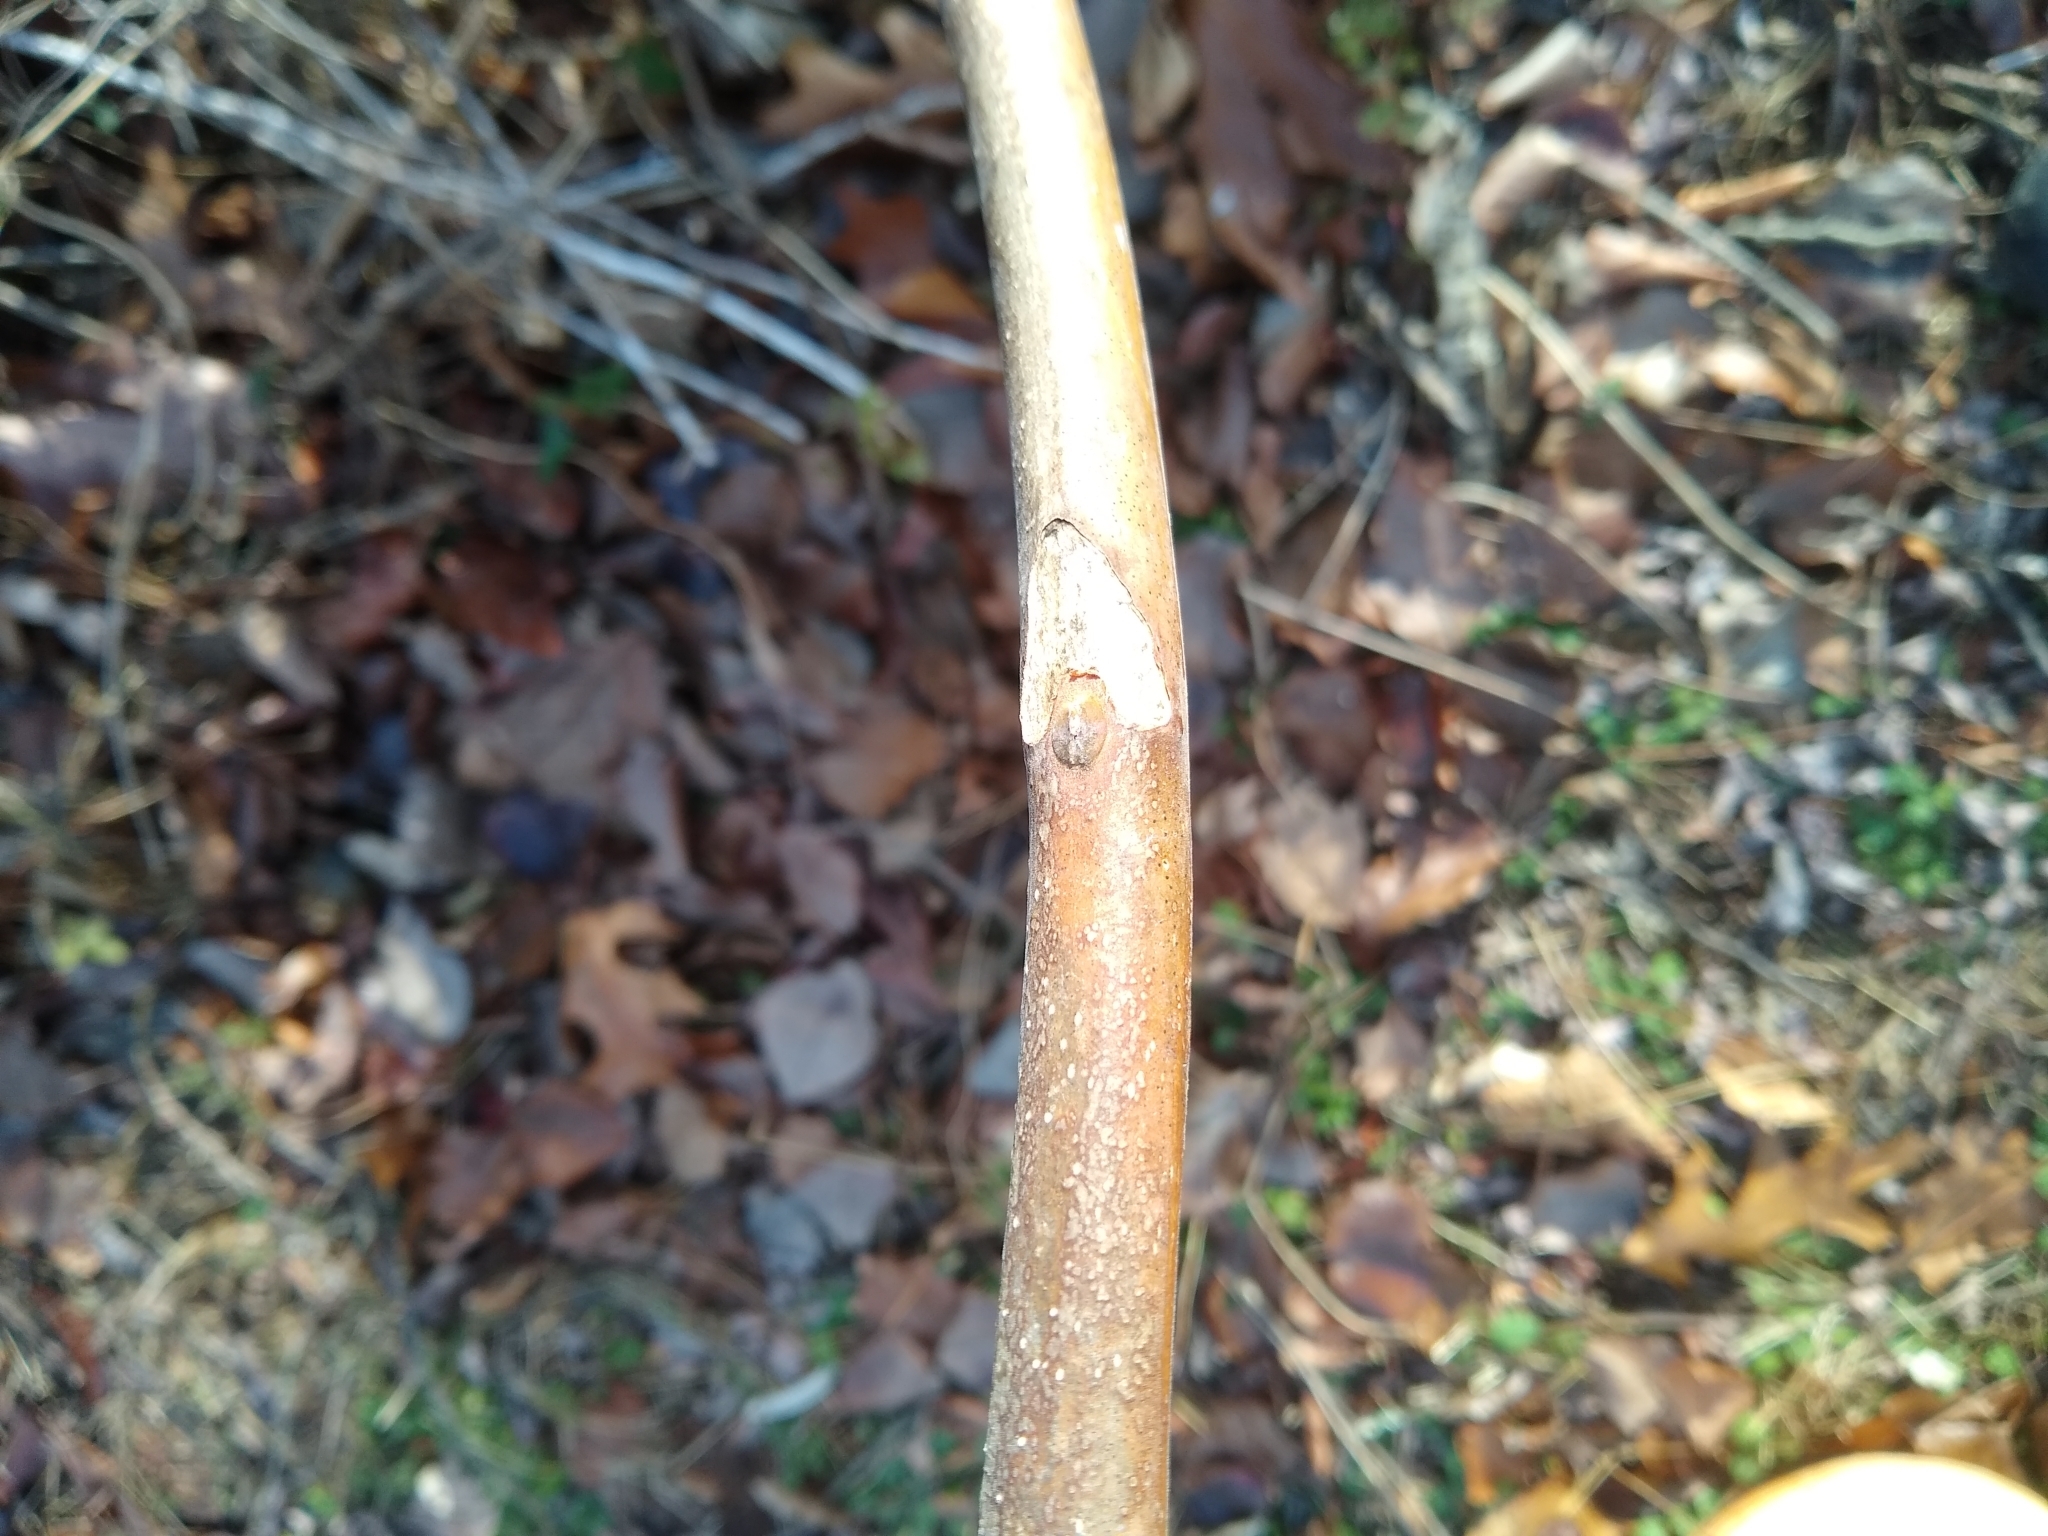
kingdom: Plantae
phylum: Tracheophyta
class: Magnoliopsida
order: Sapindales
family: Simaroubaceae
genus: Ailanthus
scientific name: Ailanthus altissima
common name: Tree-of-heaven
